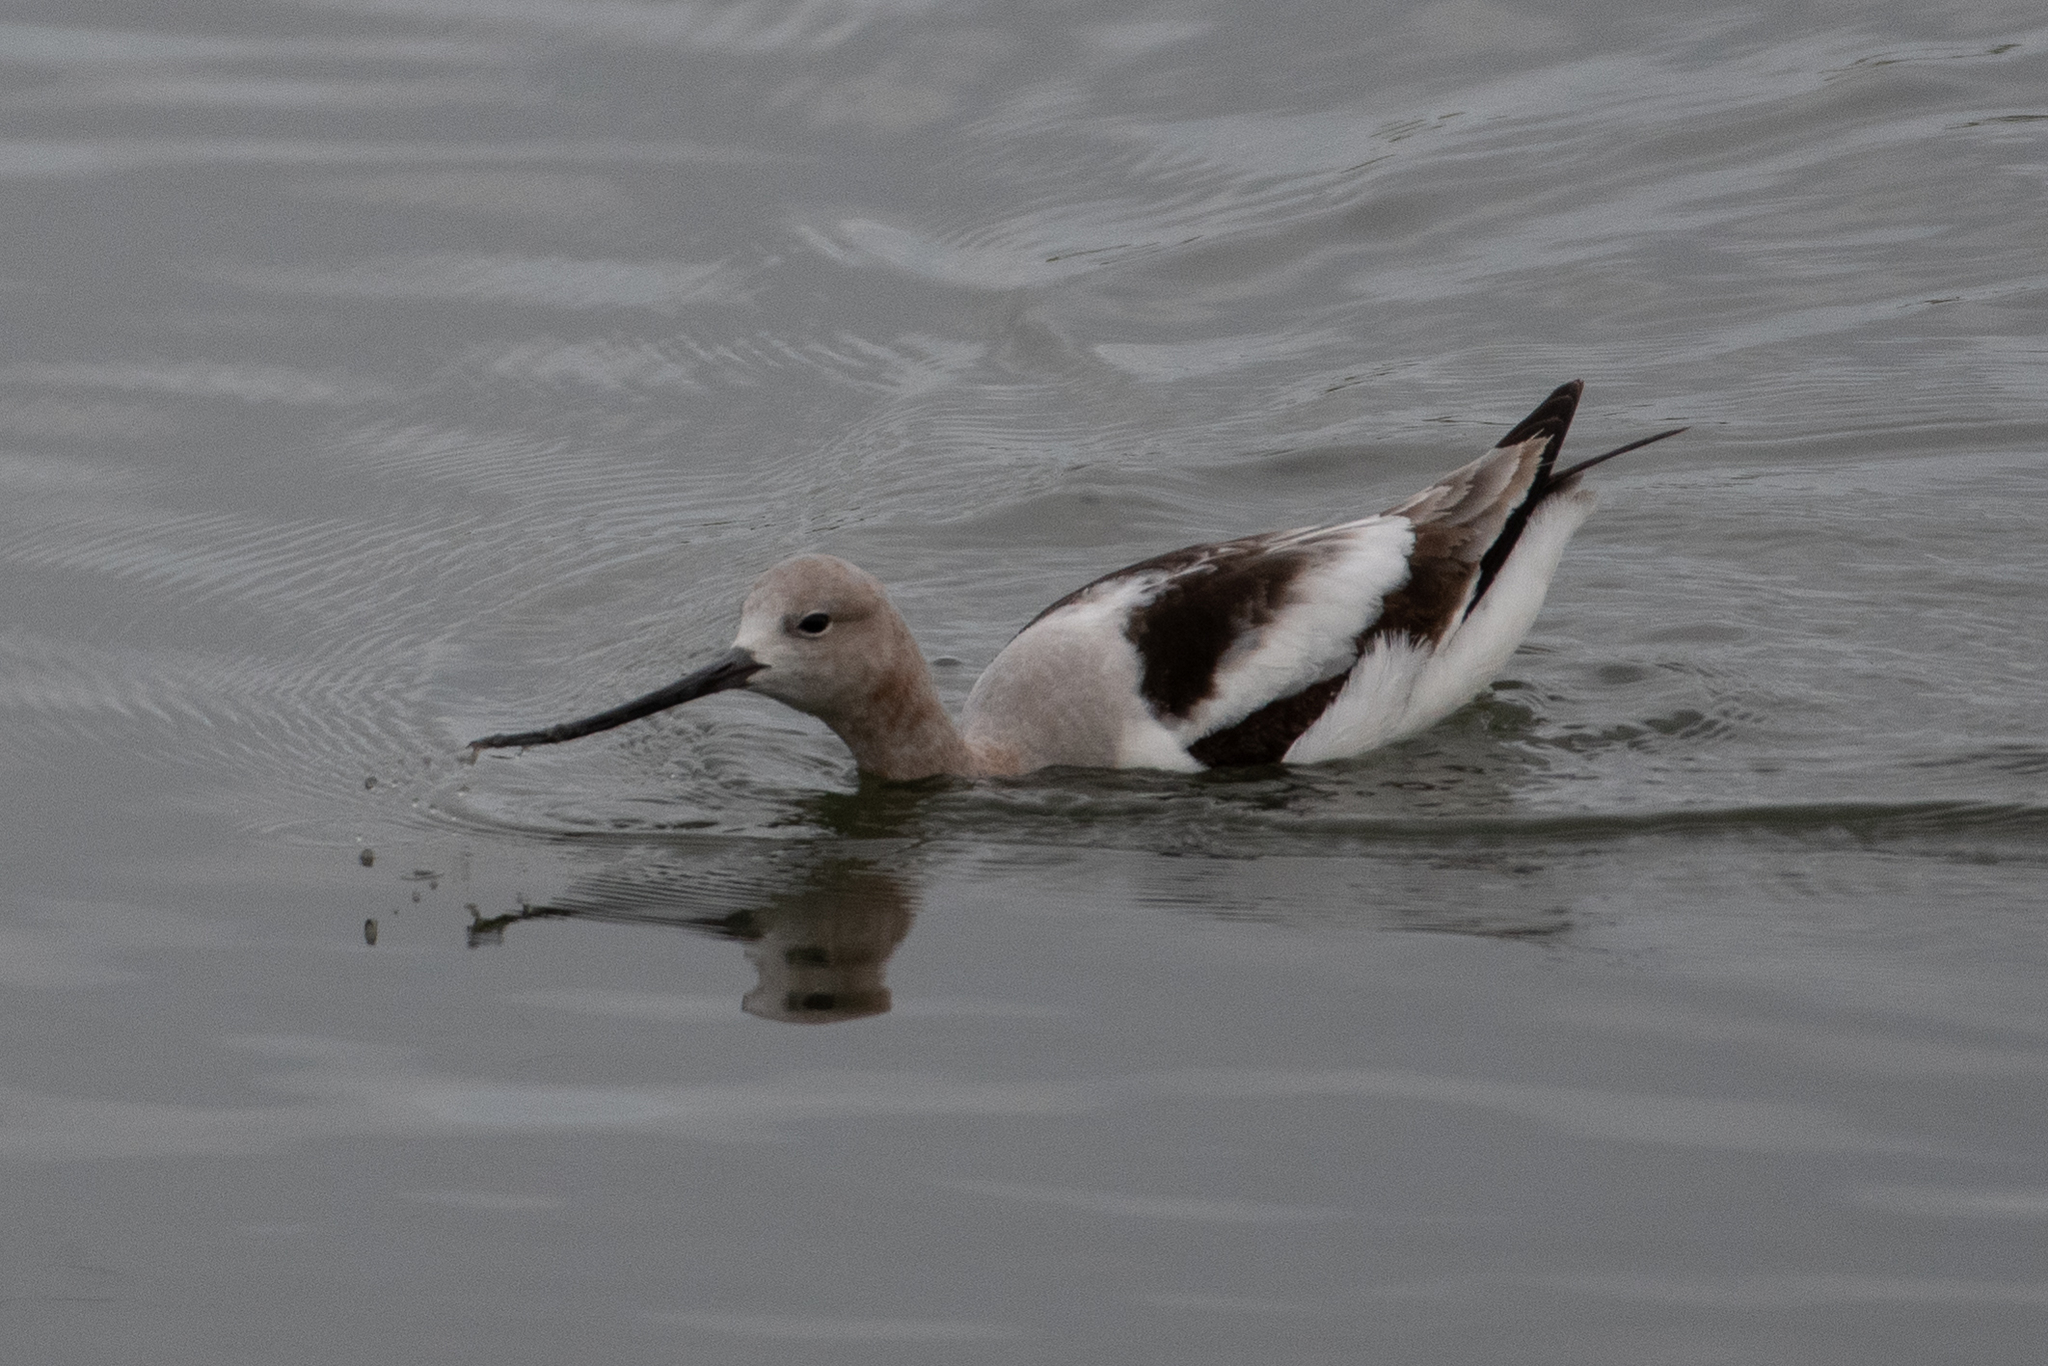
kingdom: Animalia
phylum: Chordata
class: Aves
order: Charadriiformes
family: Recurvirostridae
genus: Recurvirostra
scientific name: Recurvirostra americana
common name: American avocet
